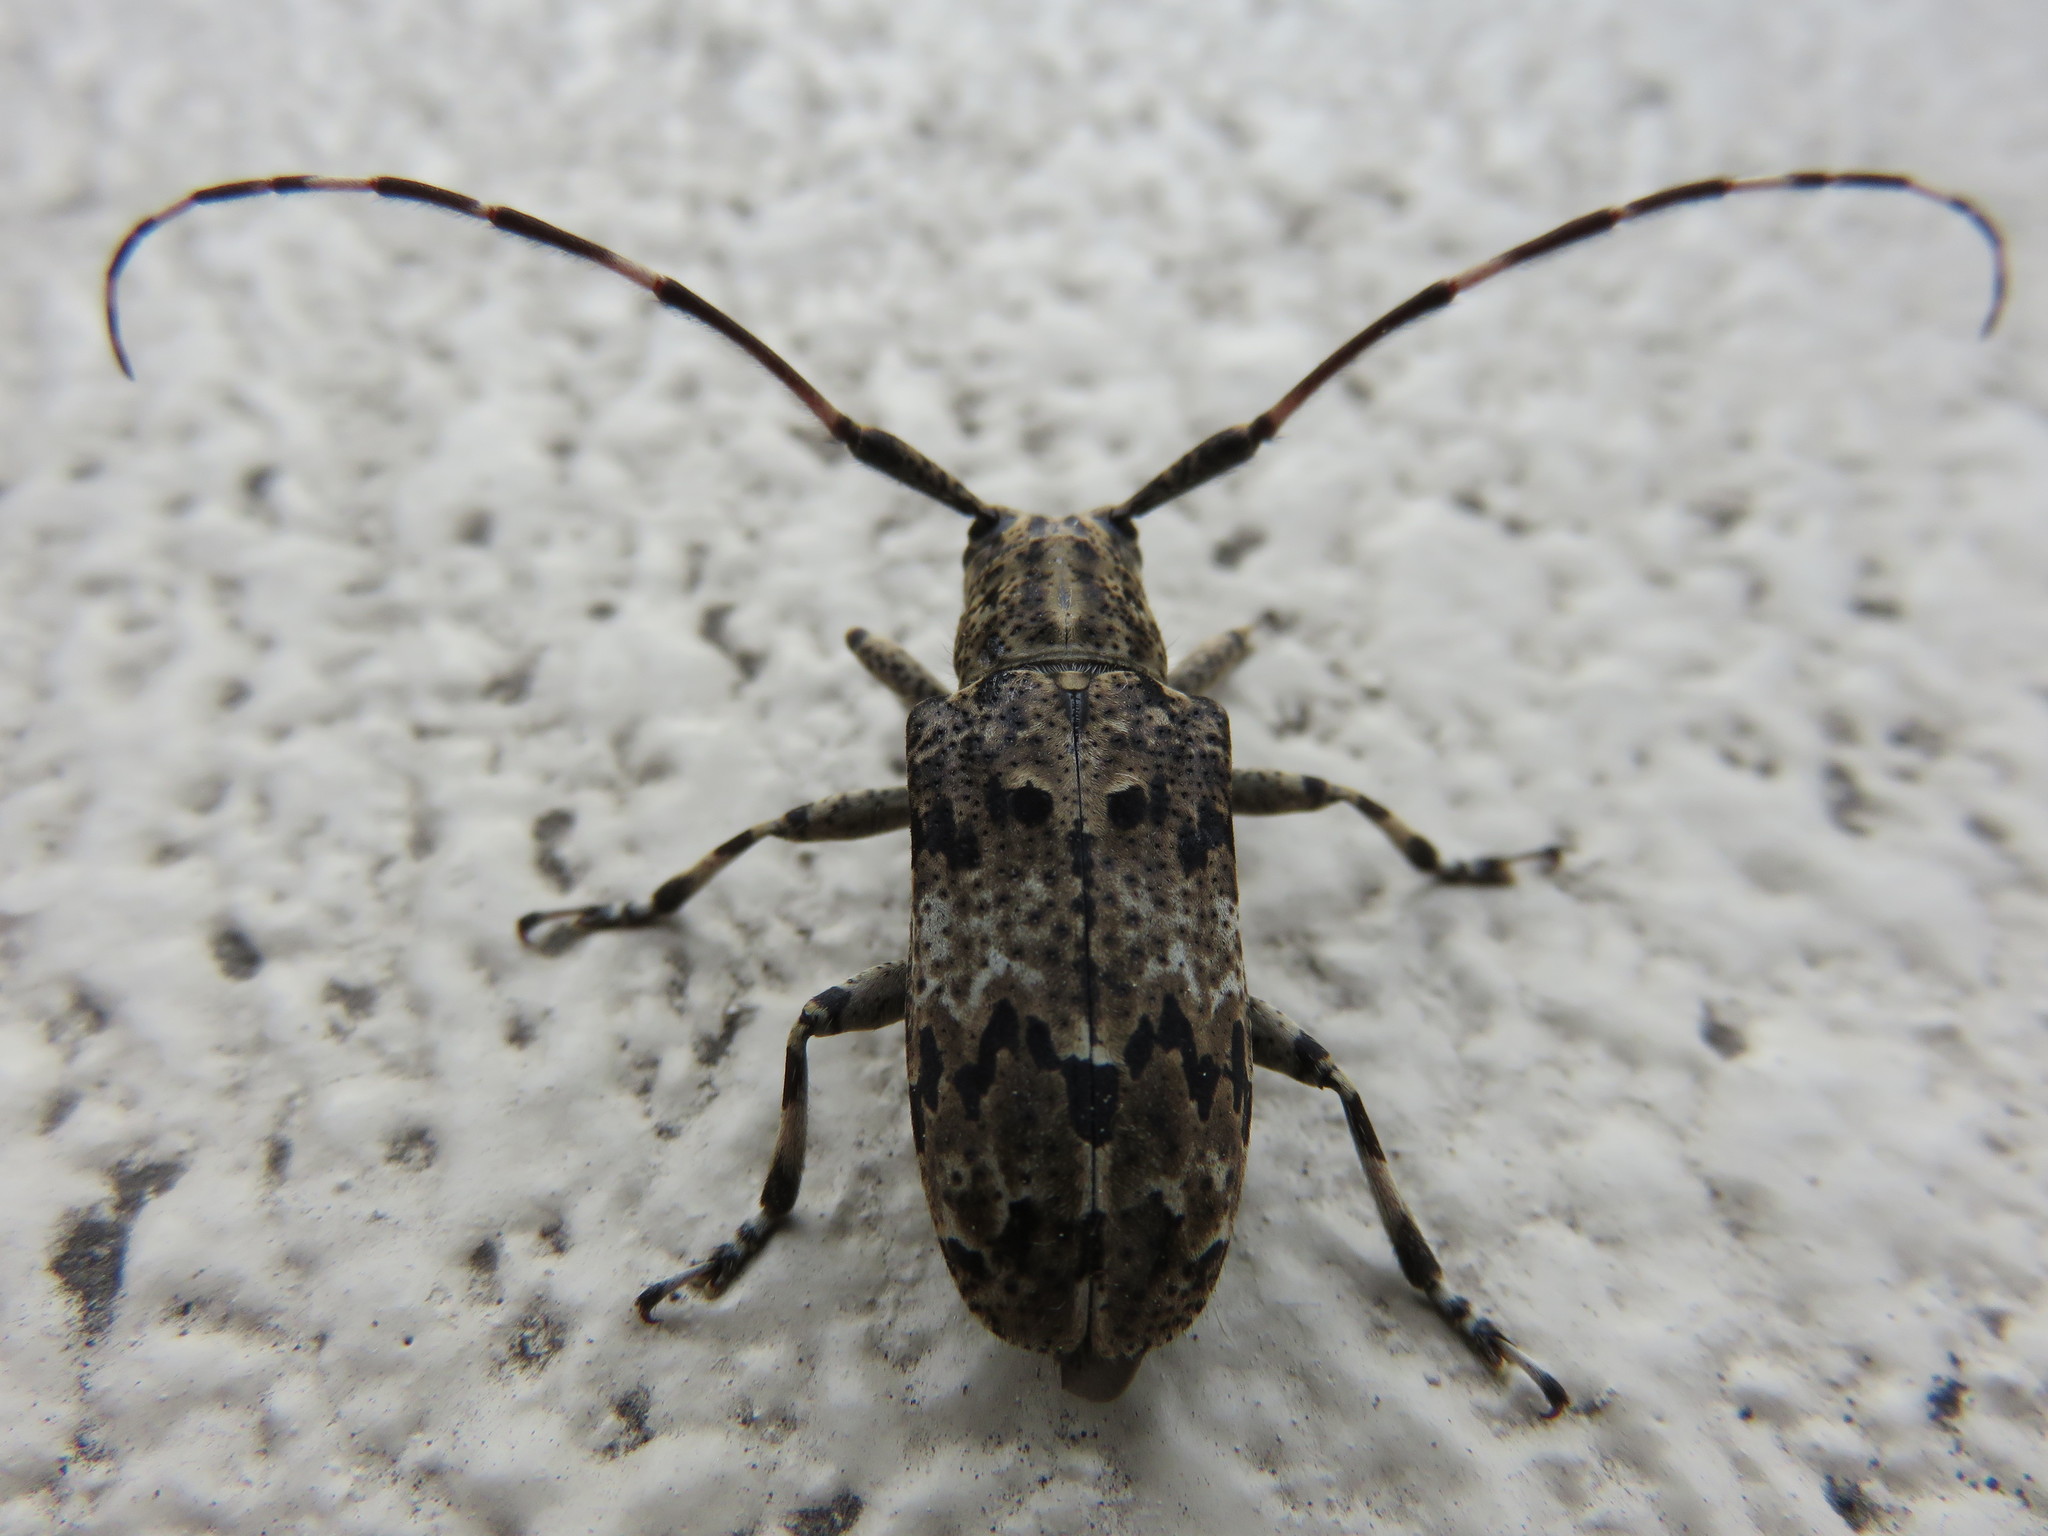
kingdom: Animalia
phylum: Arthropoda
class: Insecta
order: Coleoptera
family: Cerambycidae
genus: Mesosa
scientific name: Mesosa longipennis
